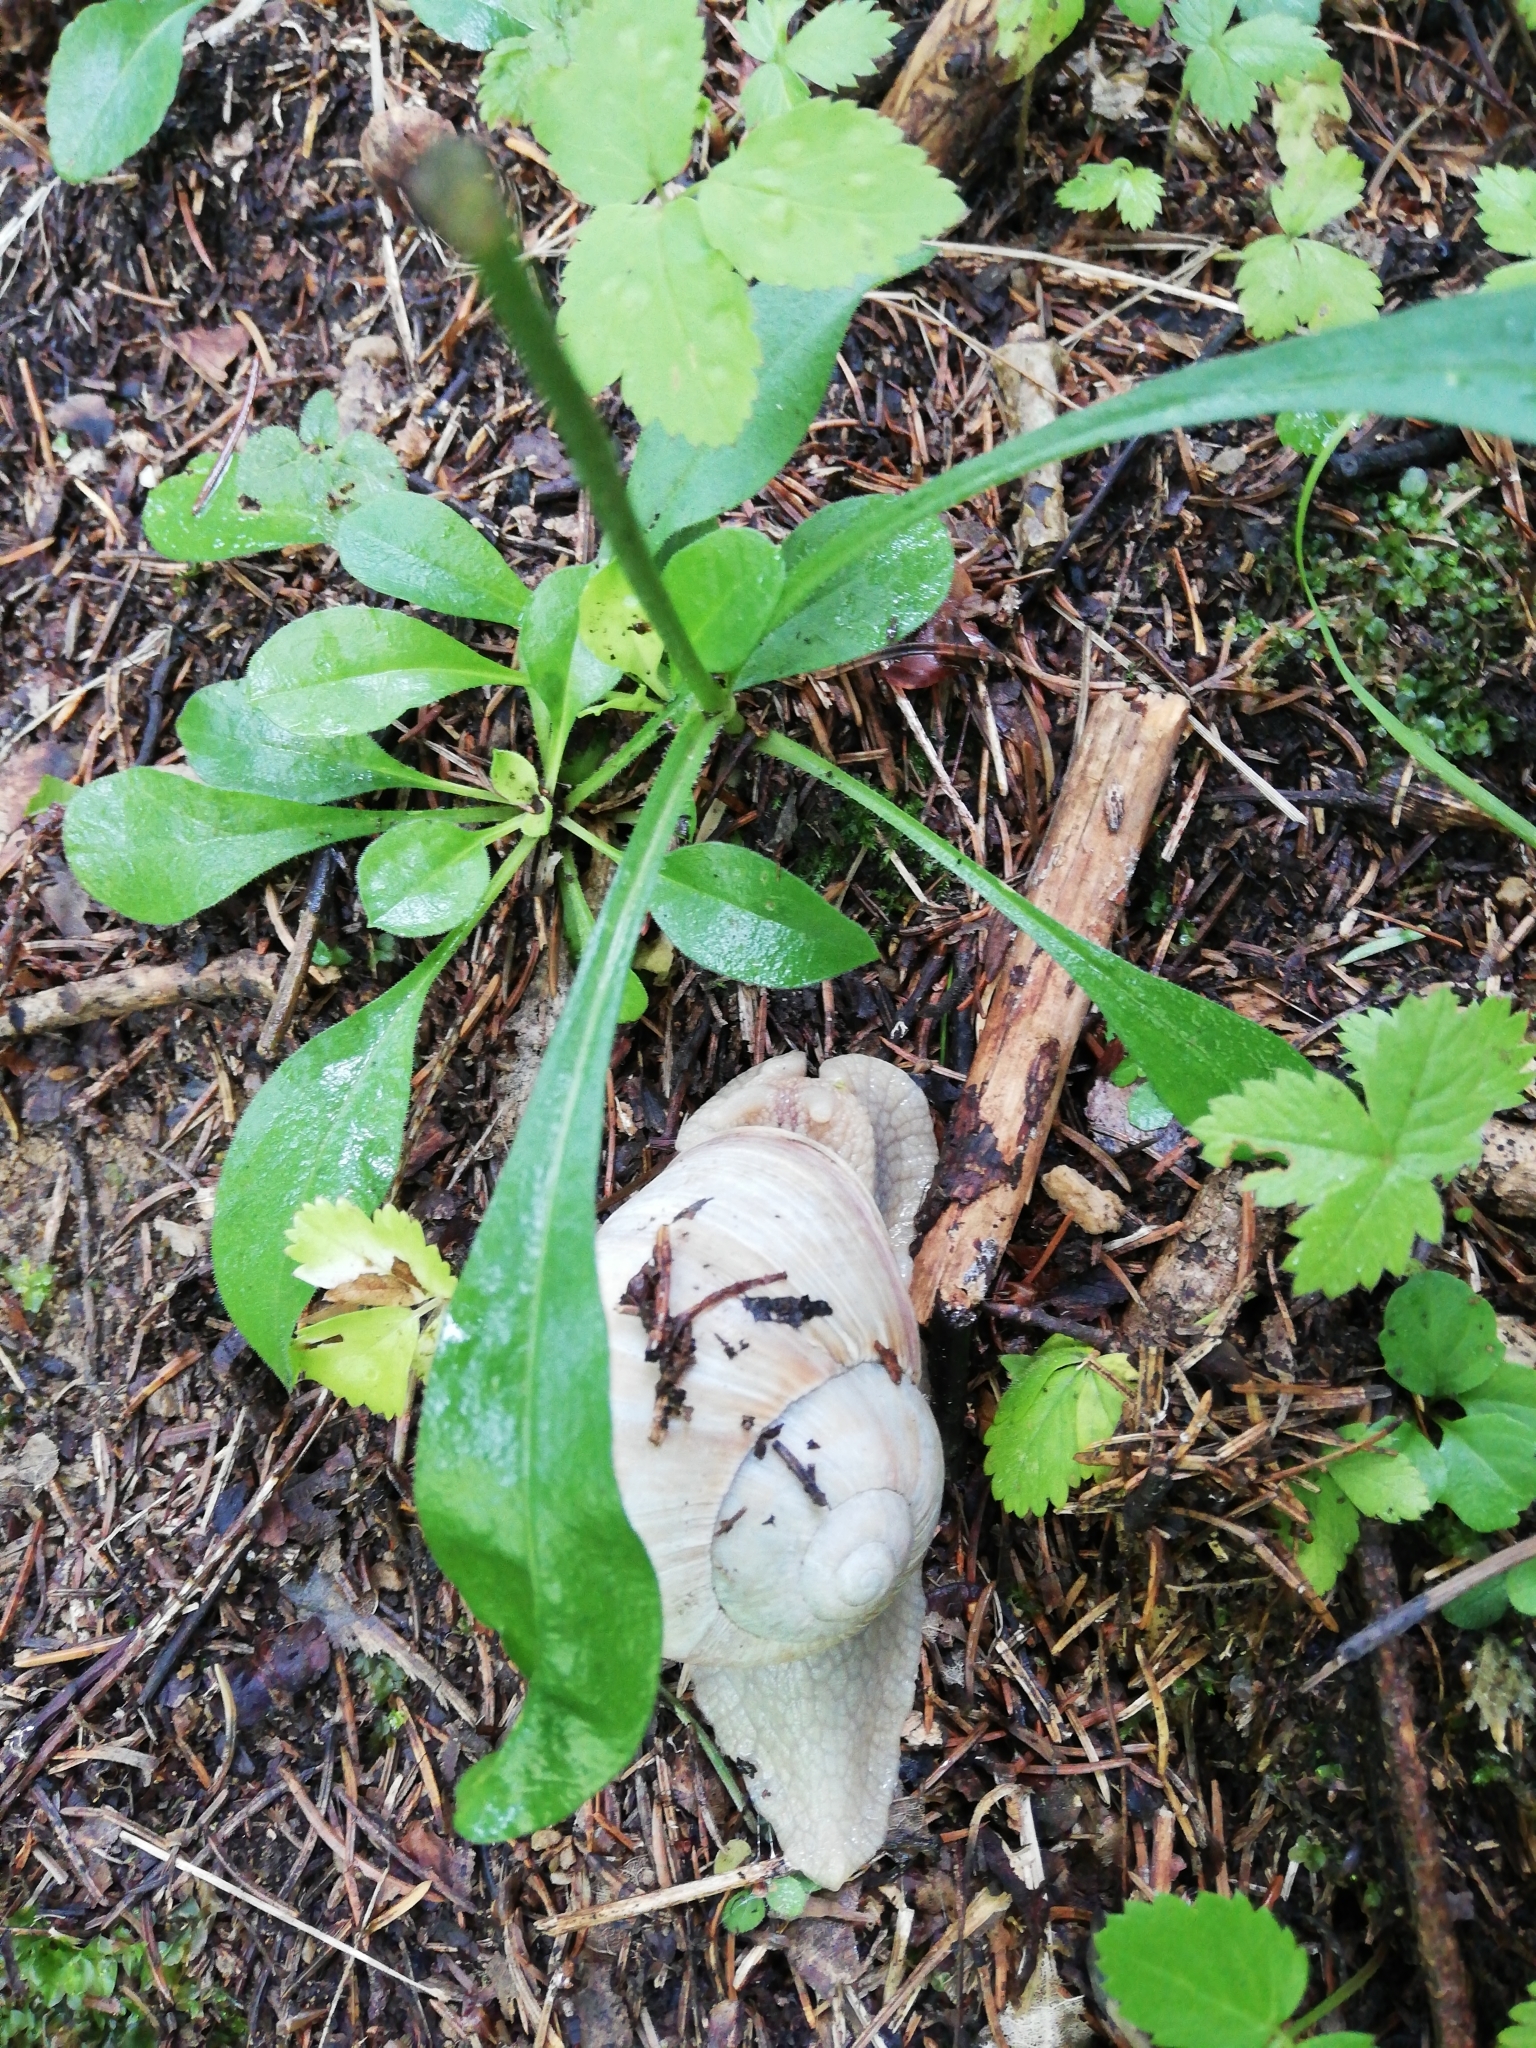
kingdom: Animalia
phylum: Mollusca
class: Gastropoda
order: Stylommatophora
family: Helicidae
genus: Helix
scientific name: Helix pomatia
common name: Roman snail
